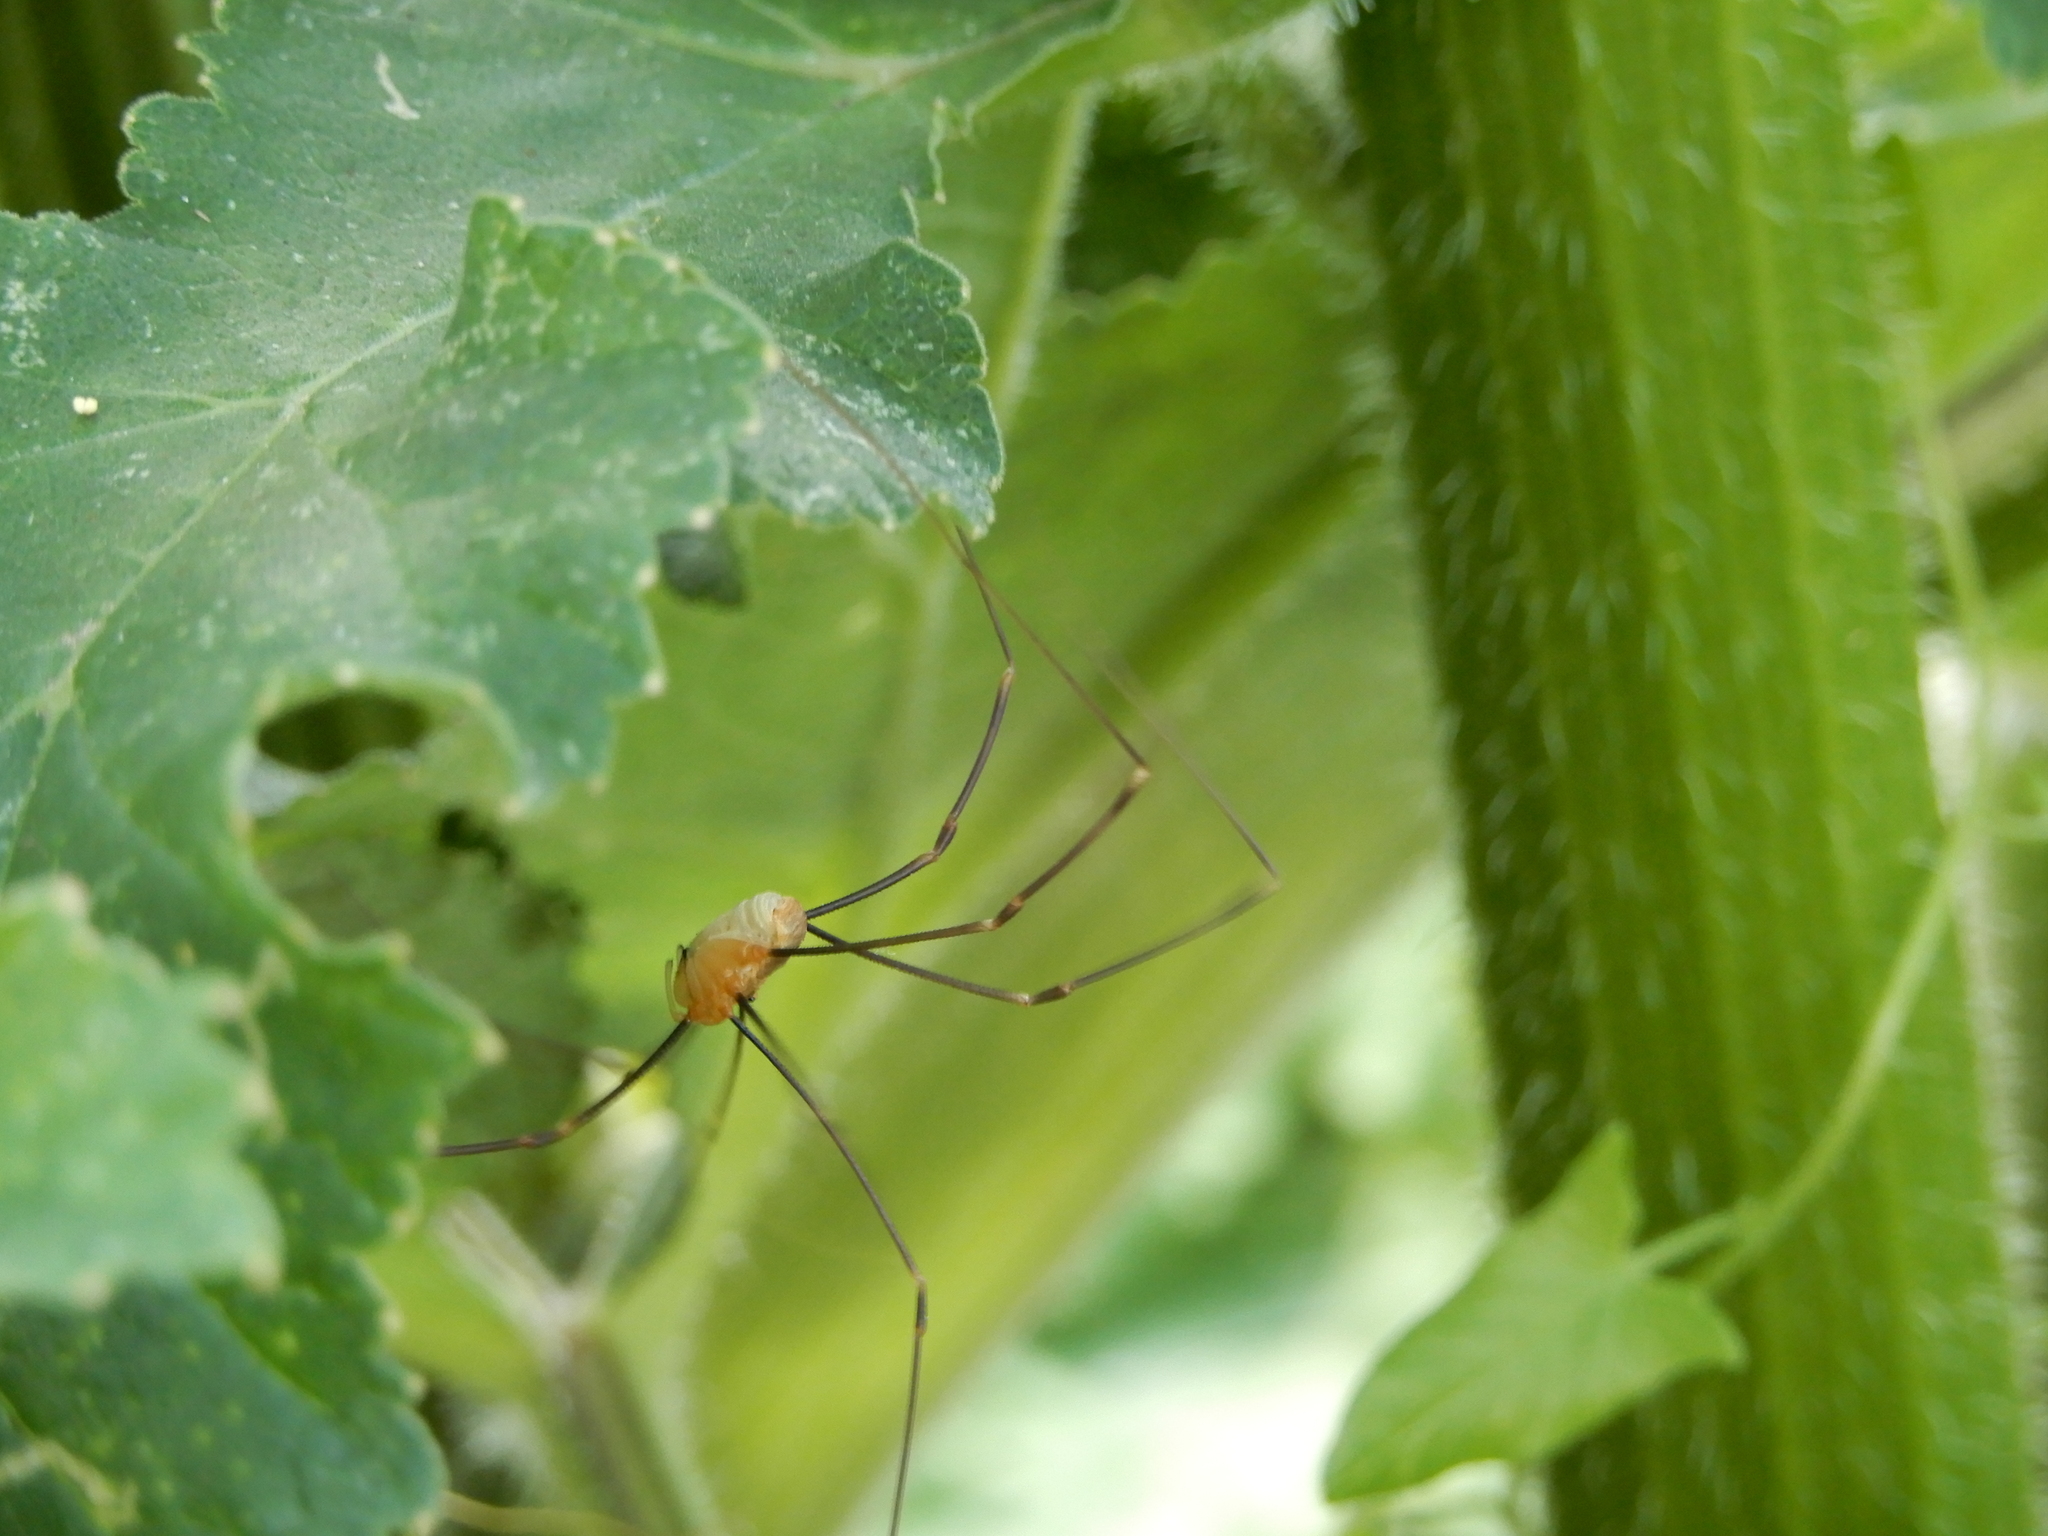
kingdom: Animalia
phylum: Arthropoda
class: Arachnida
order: Opiliones
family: Phalangiidae
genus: Opilio
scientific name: Opilio canestrinii
